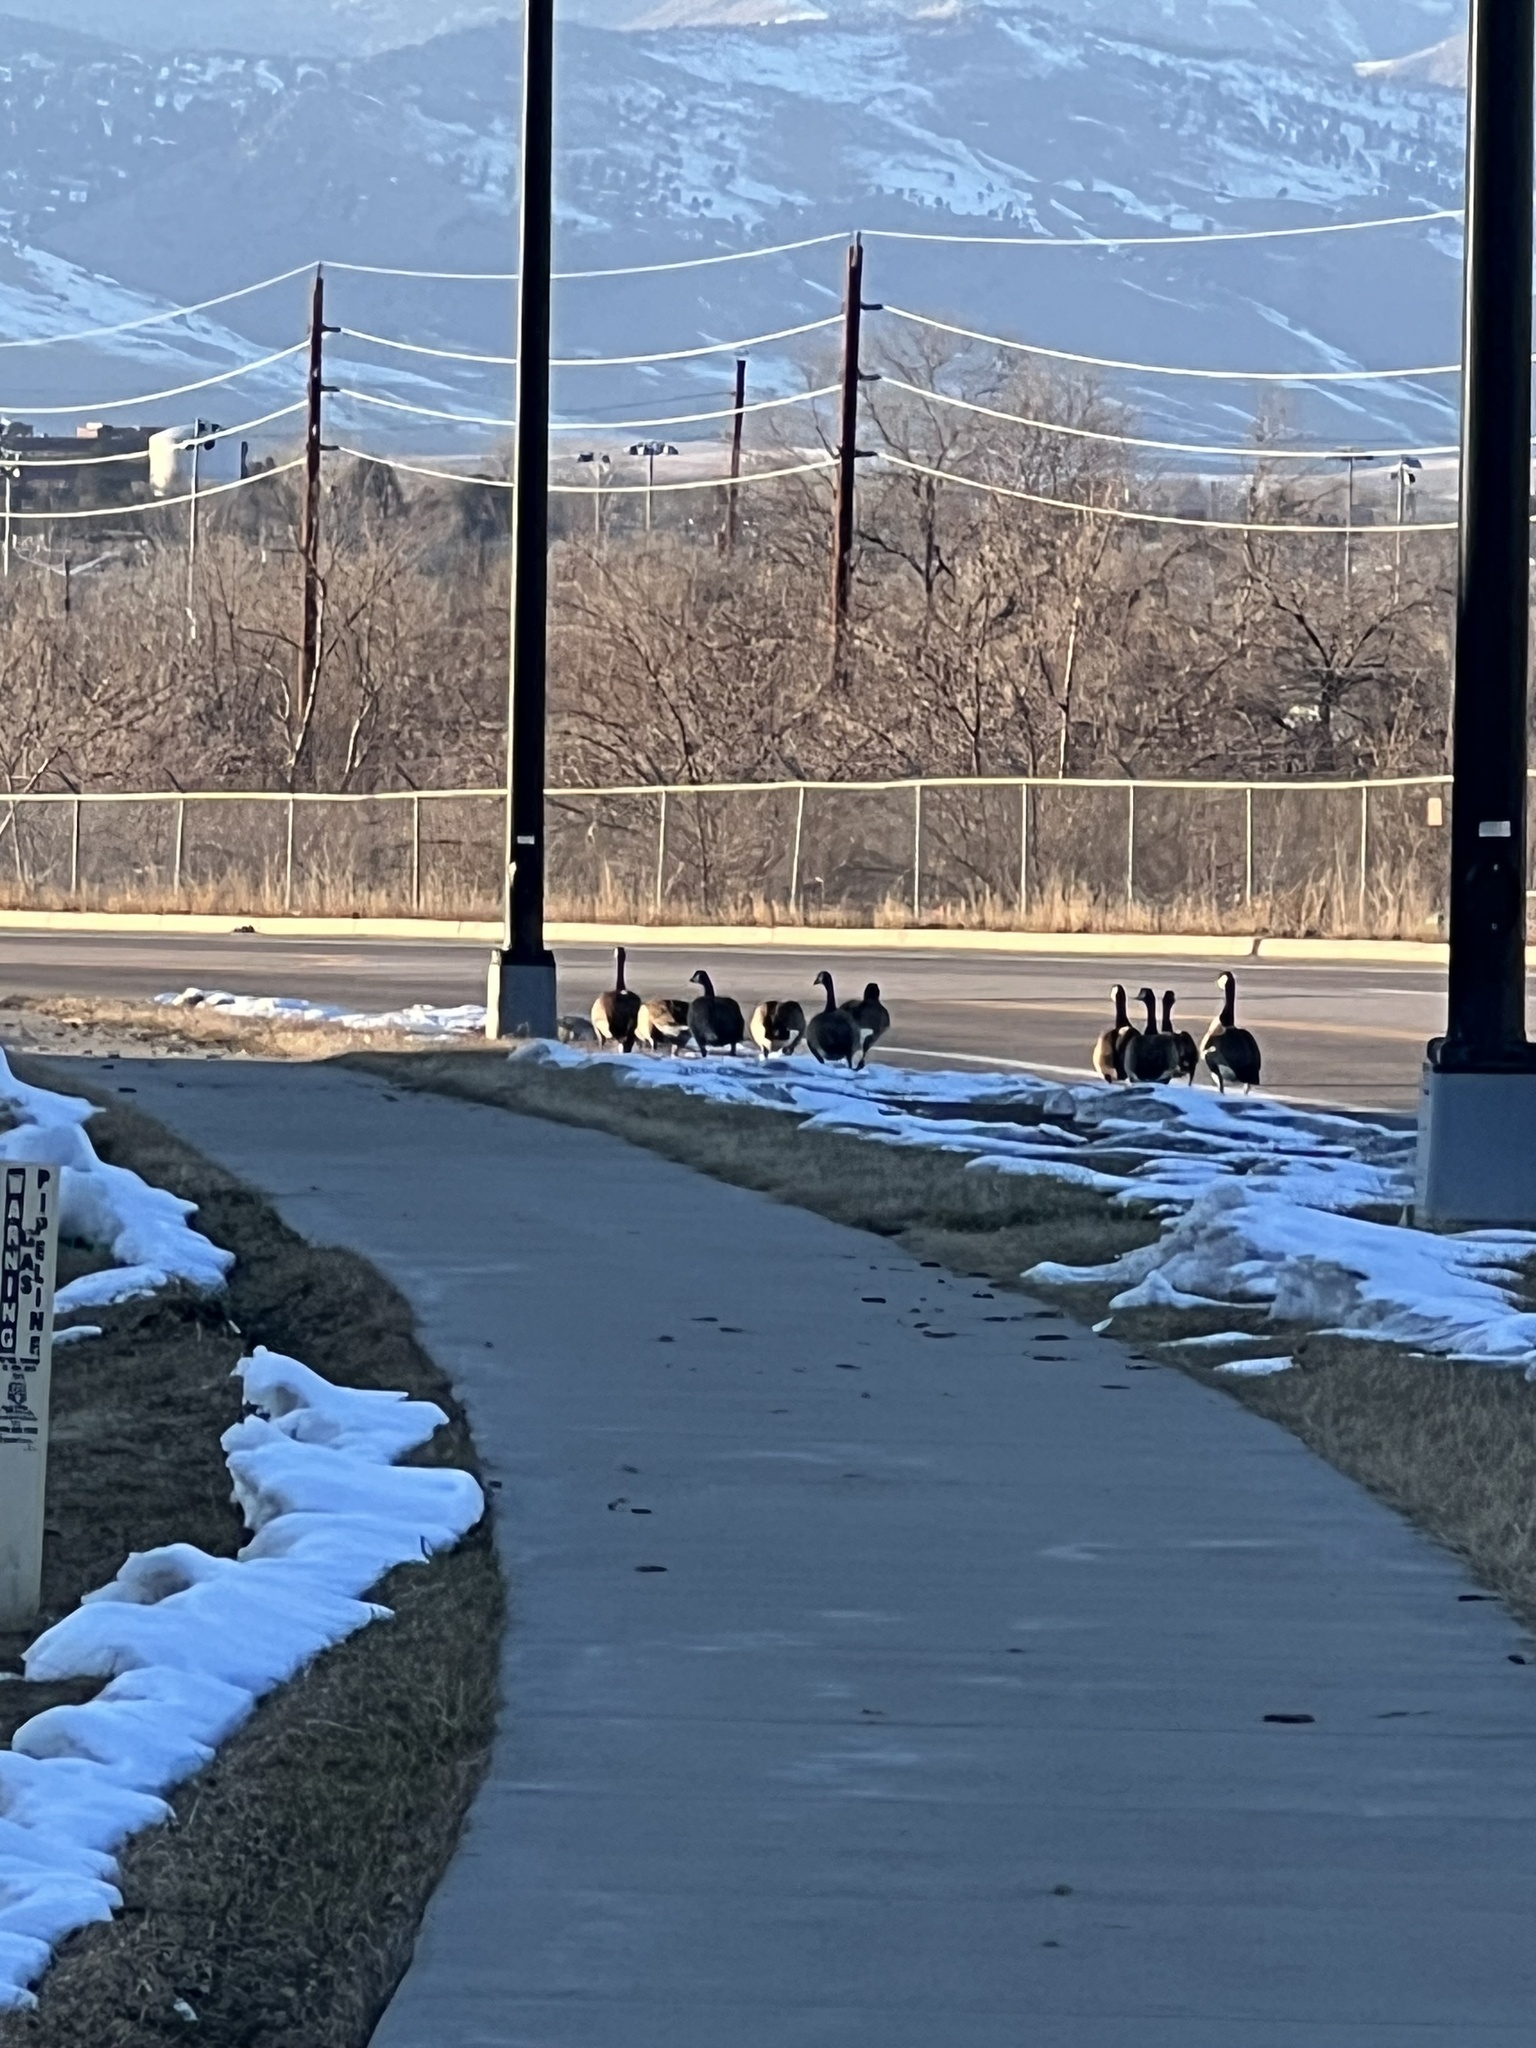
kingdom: Animalia
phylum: Chordata
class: Aves
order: Anseriformes
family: Anatidae
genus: Branta
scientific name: Branta canadensis
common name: Canada goose
